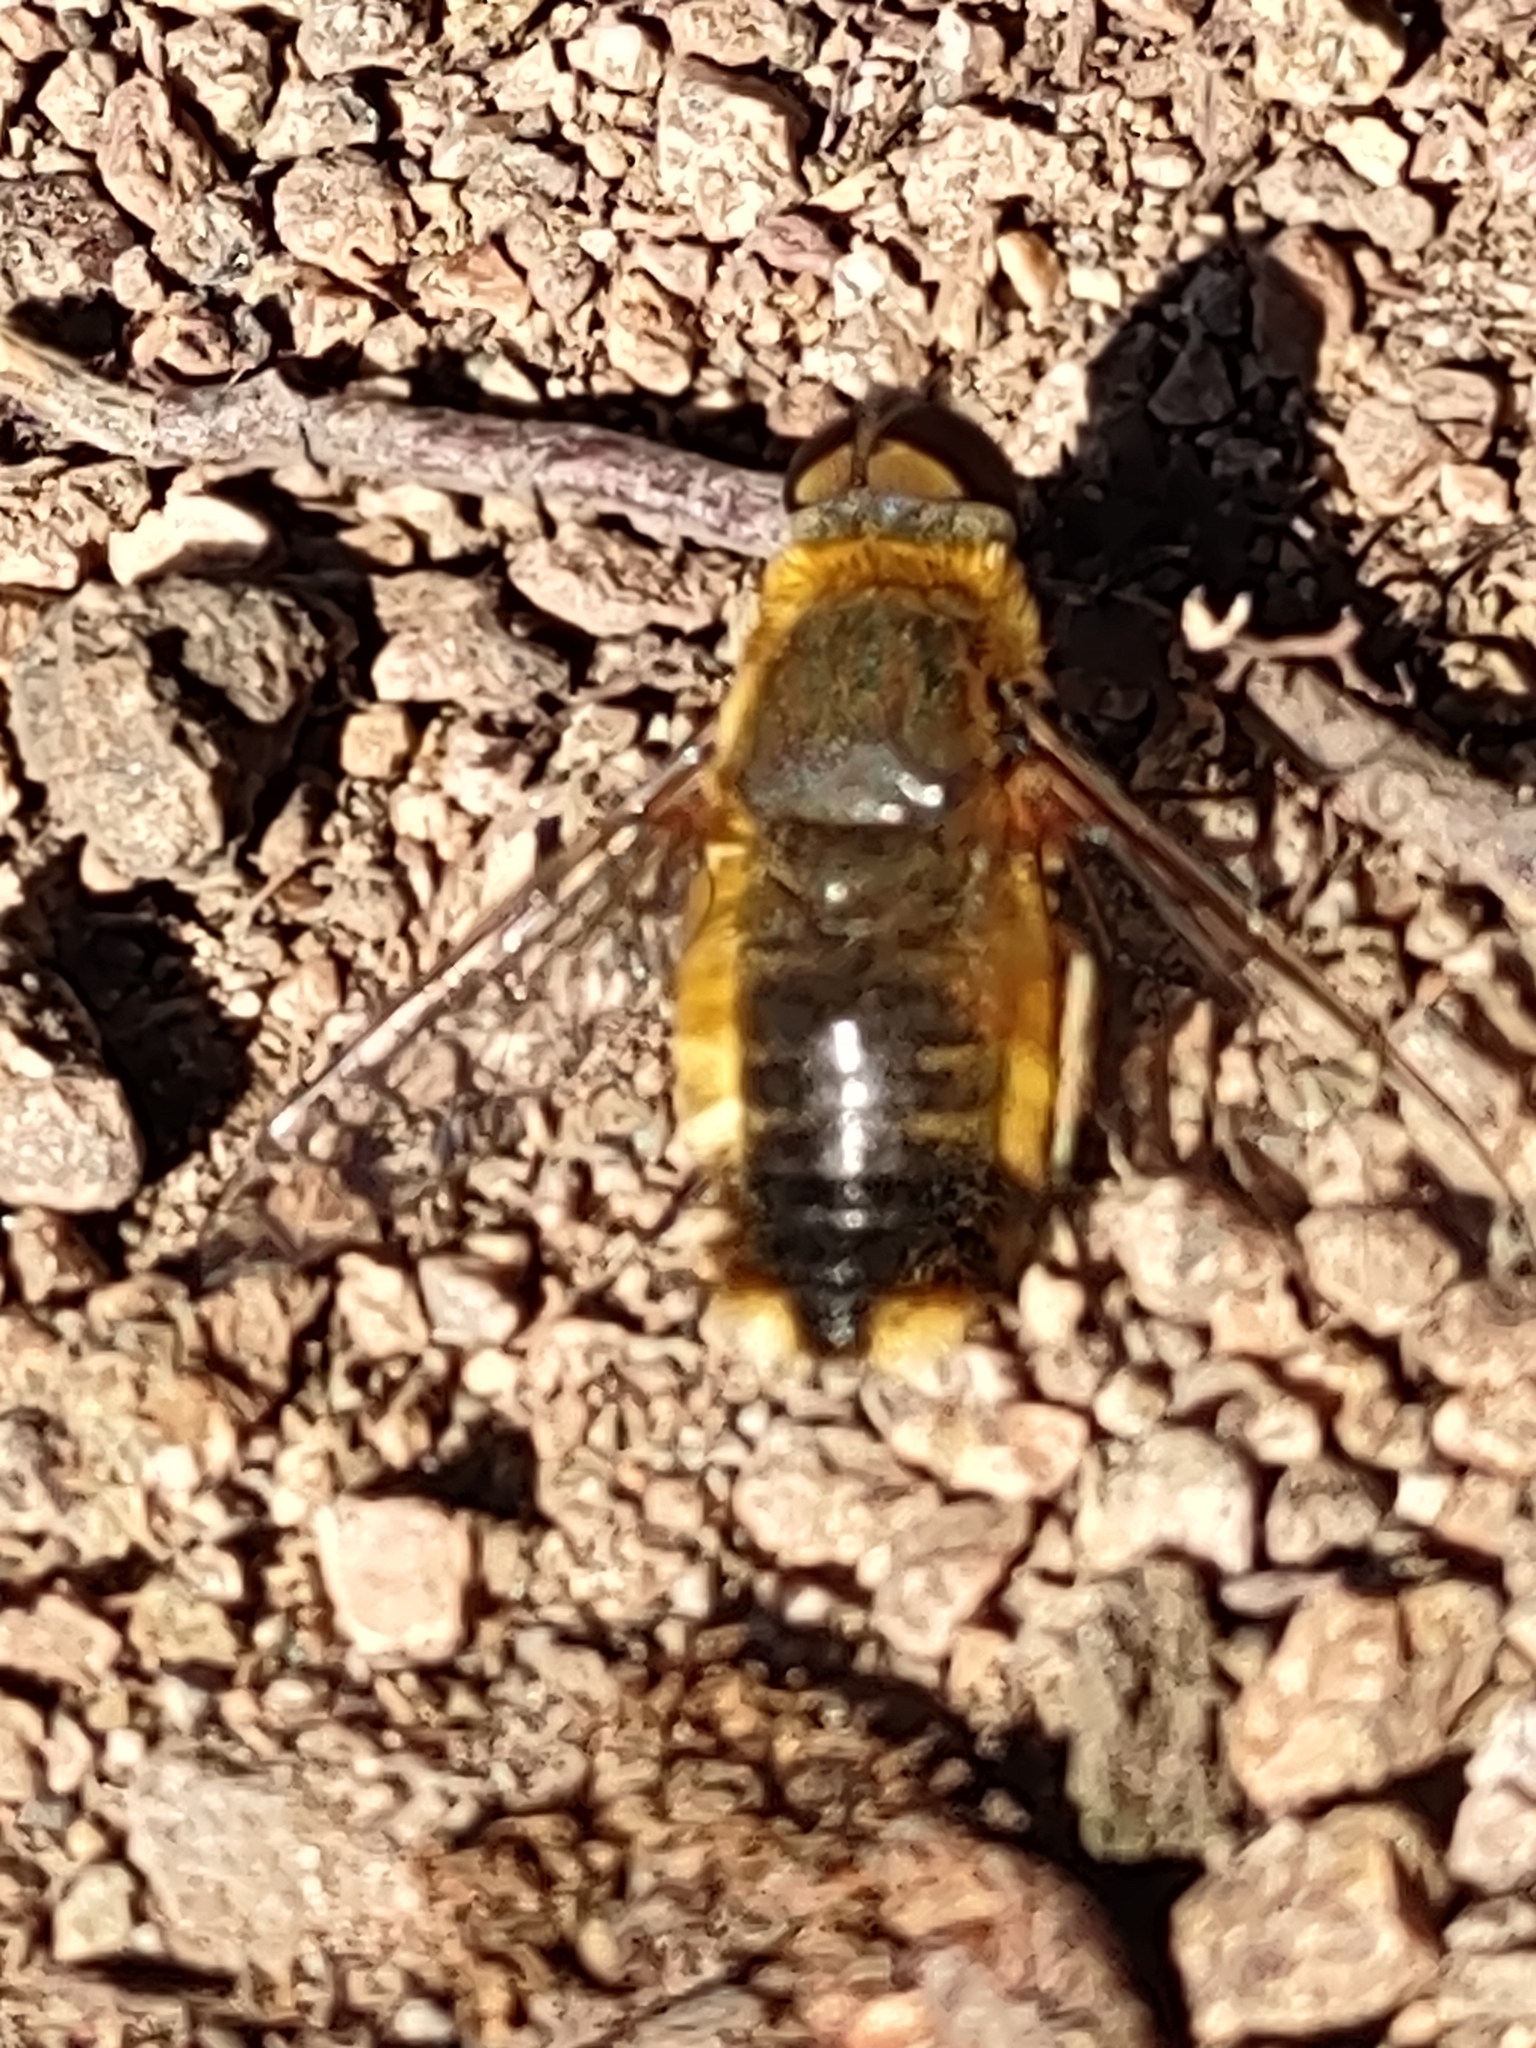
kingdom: Animalia
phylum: Arthropoda
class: Insecta
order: Diptera
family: Bombyliidae
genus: Villa
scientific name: Villa hottentotta
